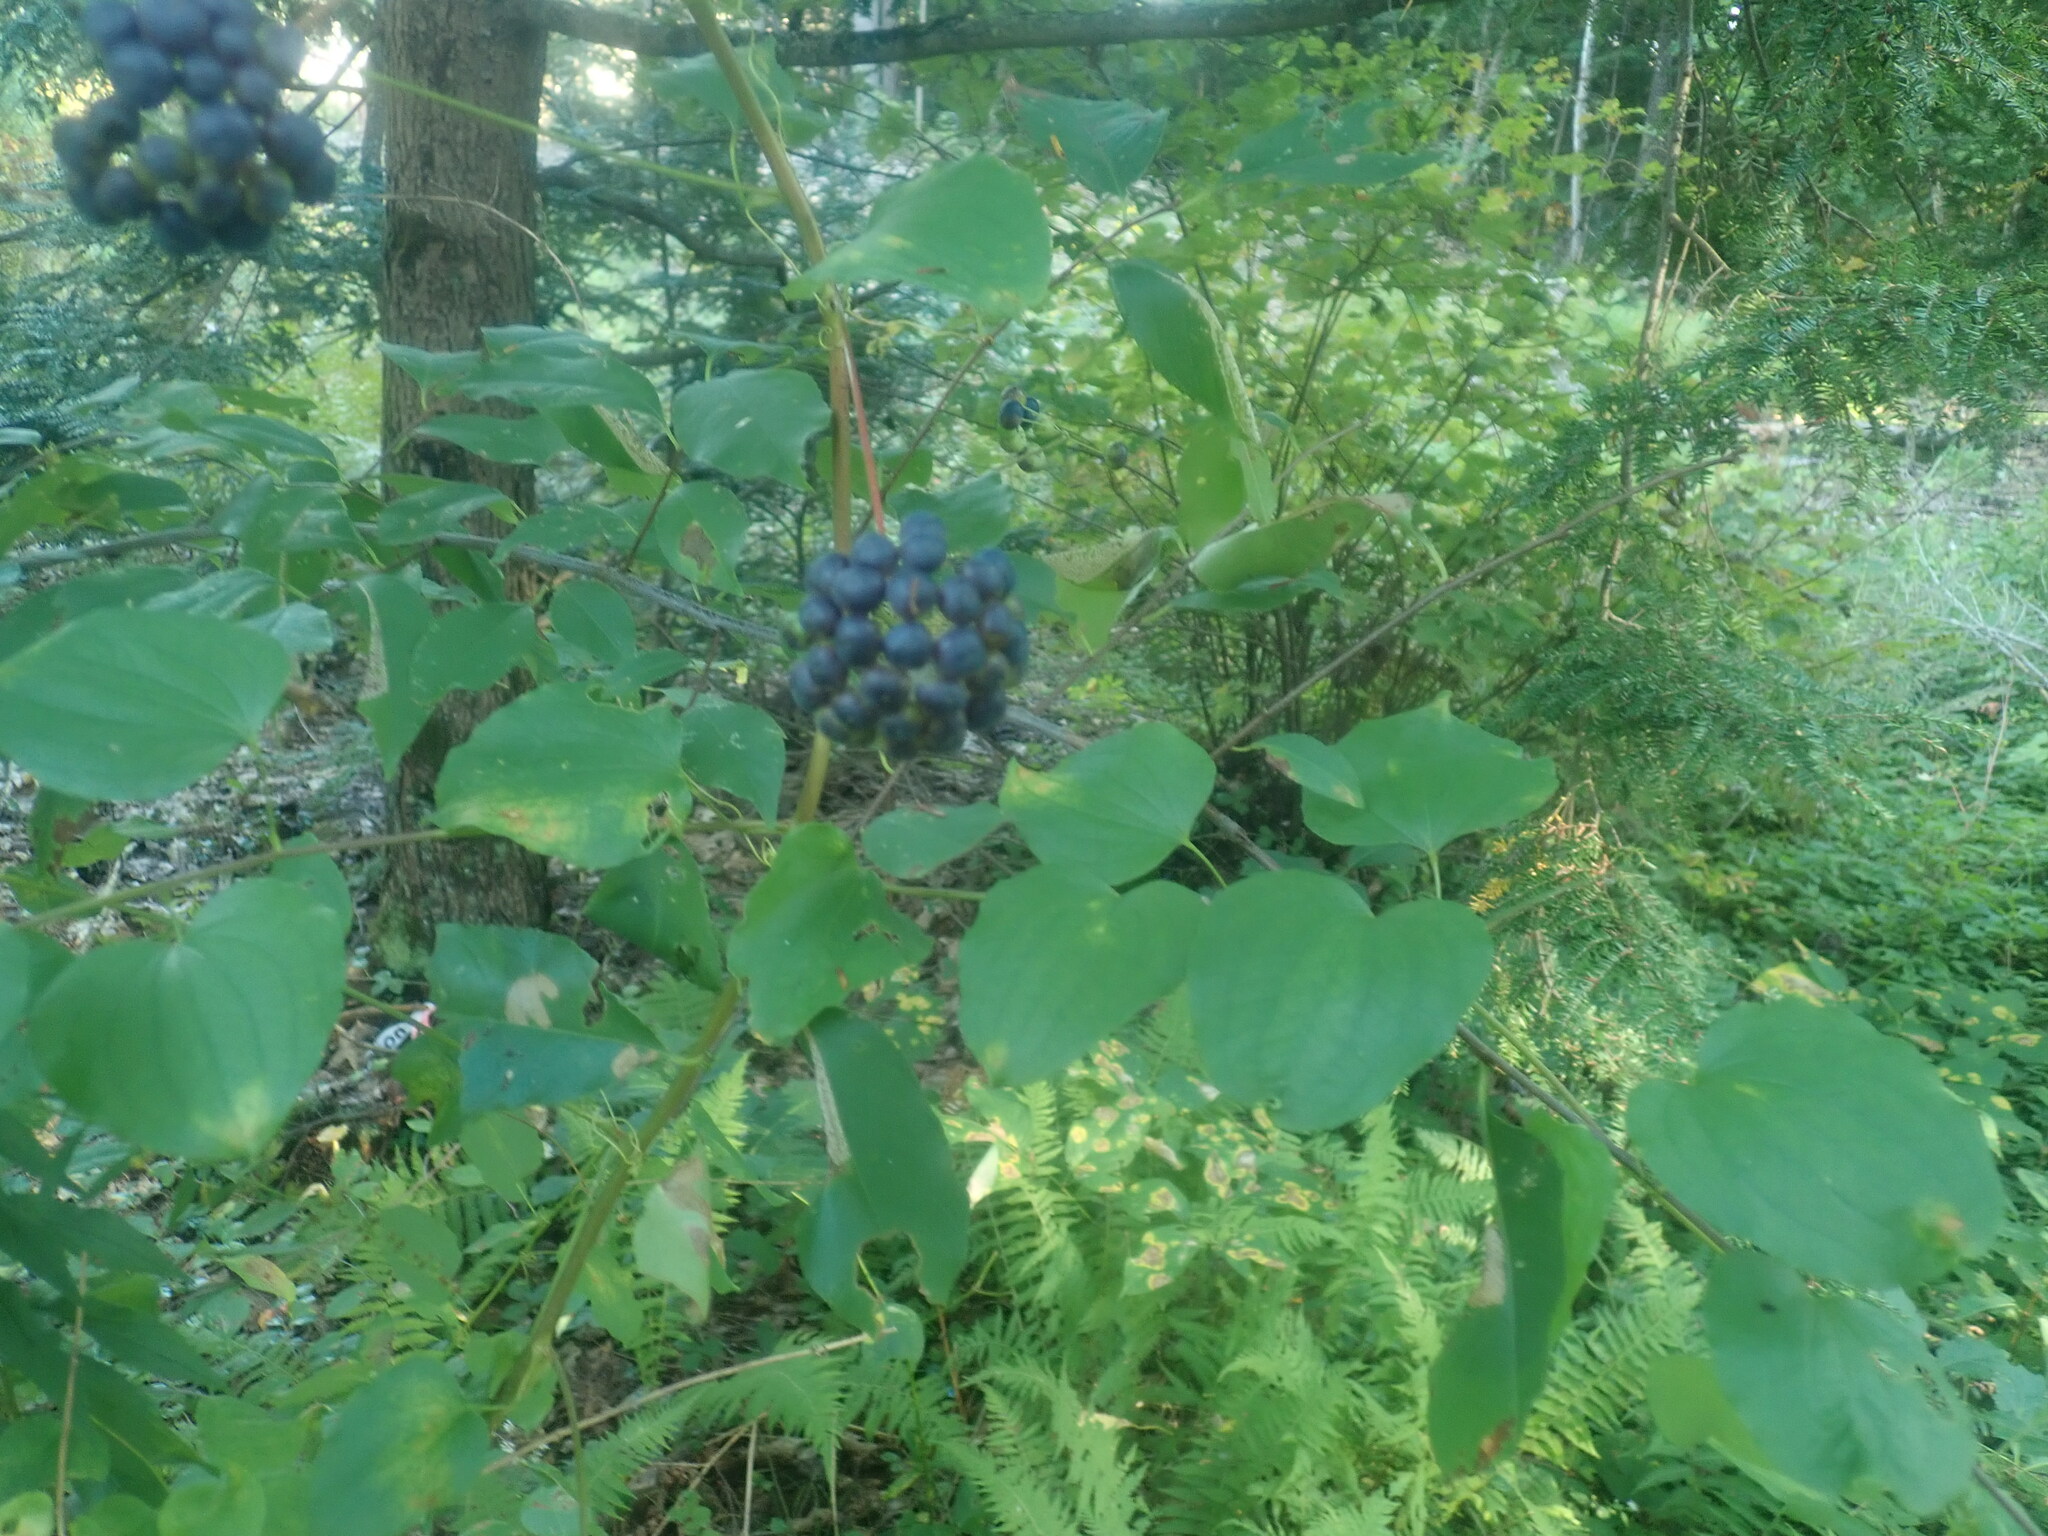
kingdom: Plantae
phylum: Tracheophyta
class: Liliopsida
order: Liliales
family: Smilacaceae
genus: Smilax
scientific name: Smilax herbacea
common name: Jacob's-ladder
